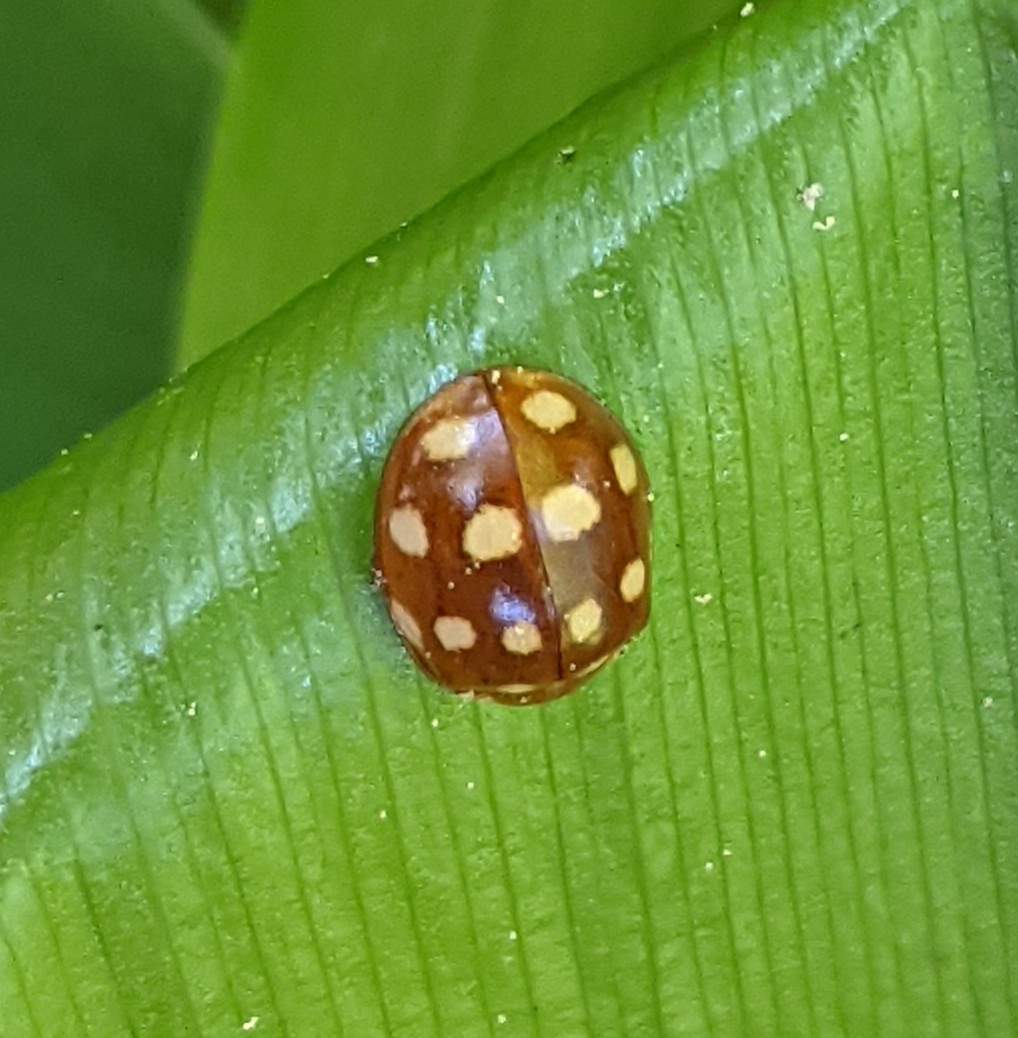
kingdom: Animalia
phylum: Arthropoda
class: Insecta
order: Coleoptera
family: Coccinellidae
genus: Calvia
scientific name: Calvia quatuordecimguttata
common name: Cream-spot ladybird
